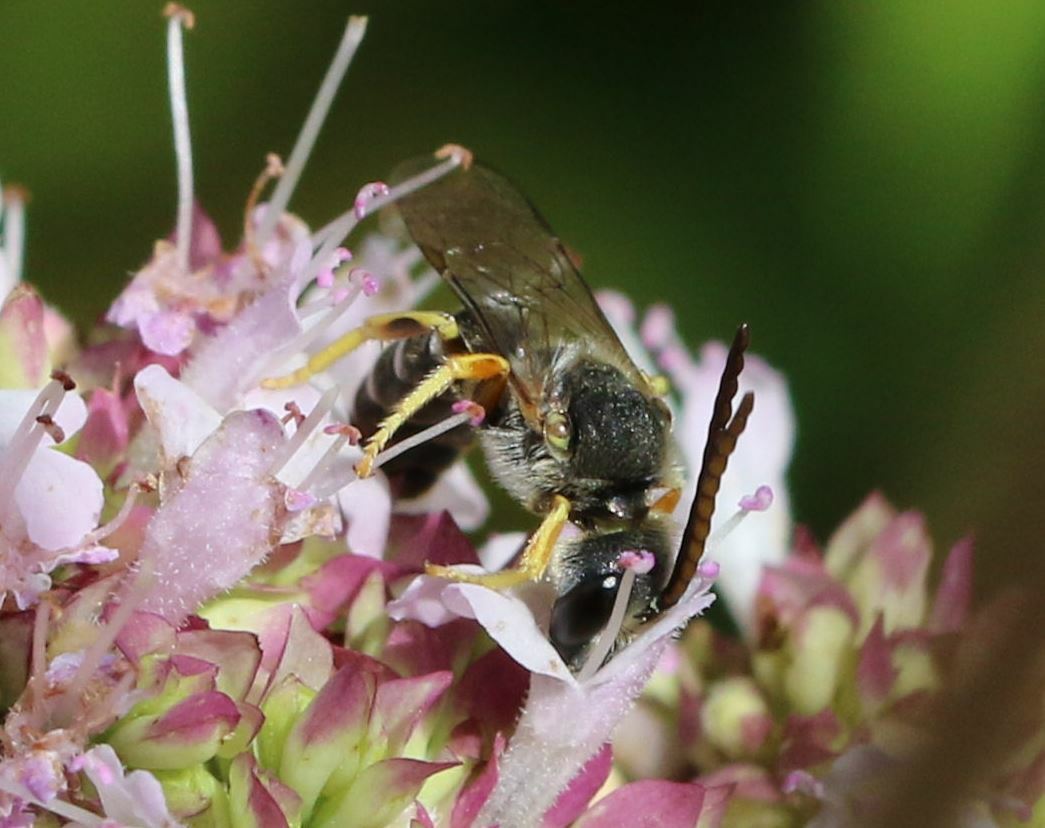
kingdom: Animalia
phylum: Arthropoda
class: Insecta
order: Hymenoptera
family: Halictidae
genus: Halictus
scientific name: Halictus langobardicus
